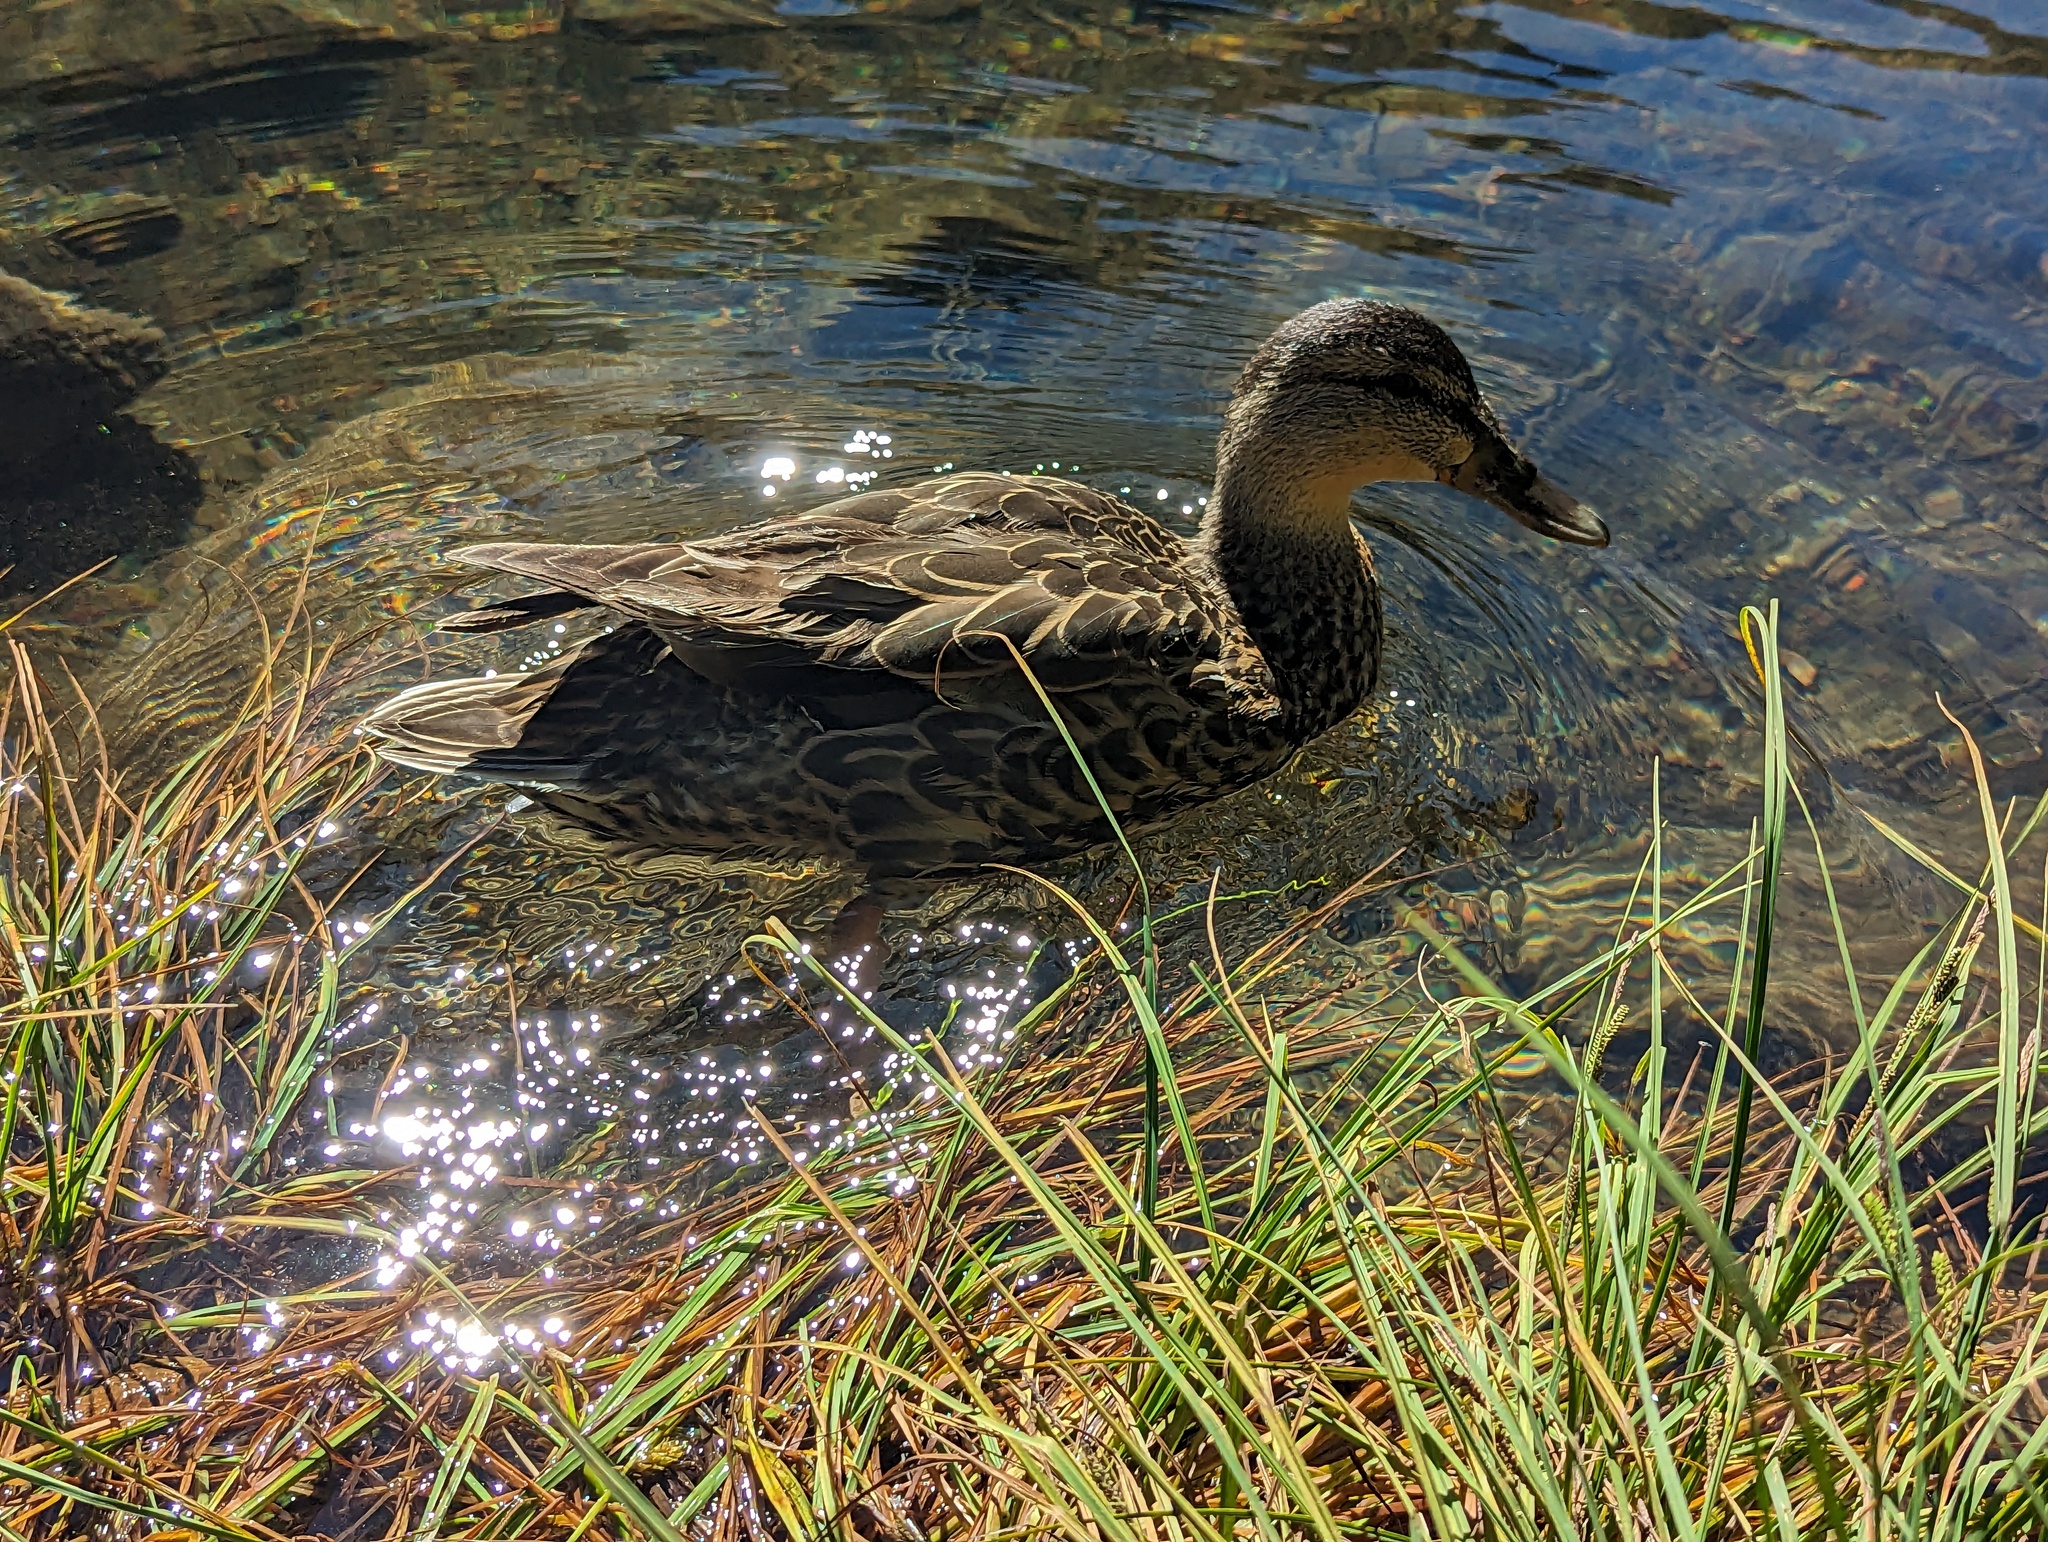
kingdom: Animalia
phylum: Chordata
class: Aves
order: Anseriformes
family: Anatidae
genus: Anas
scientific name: Anas platyrhynchos
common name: Mallard
